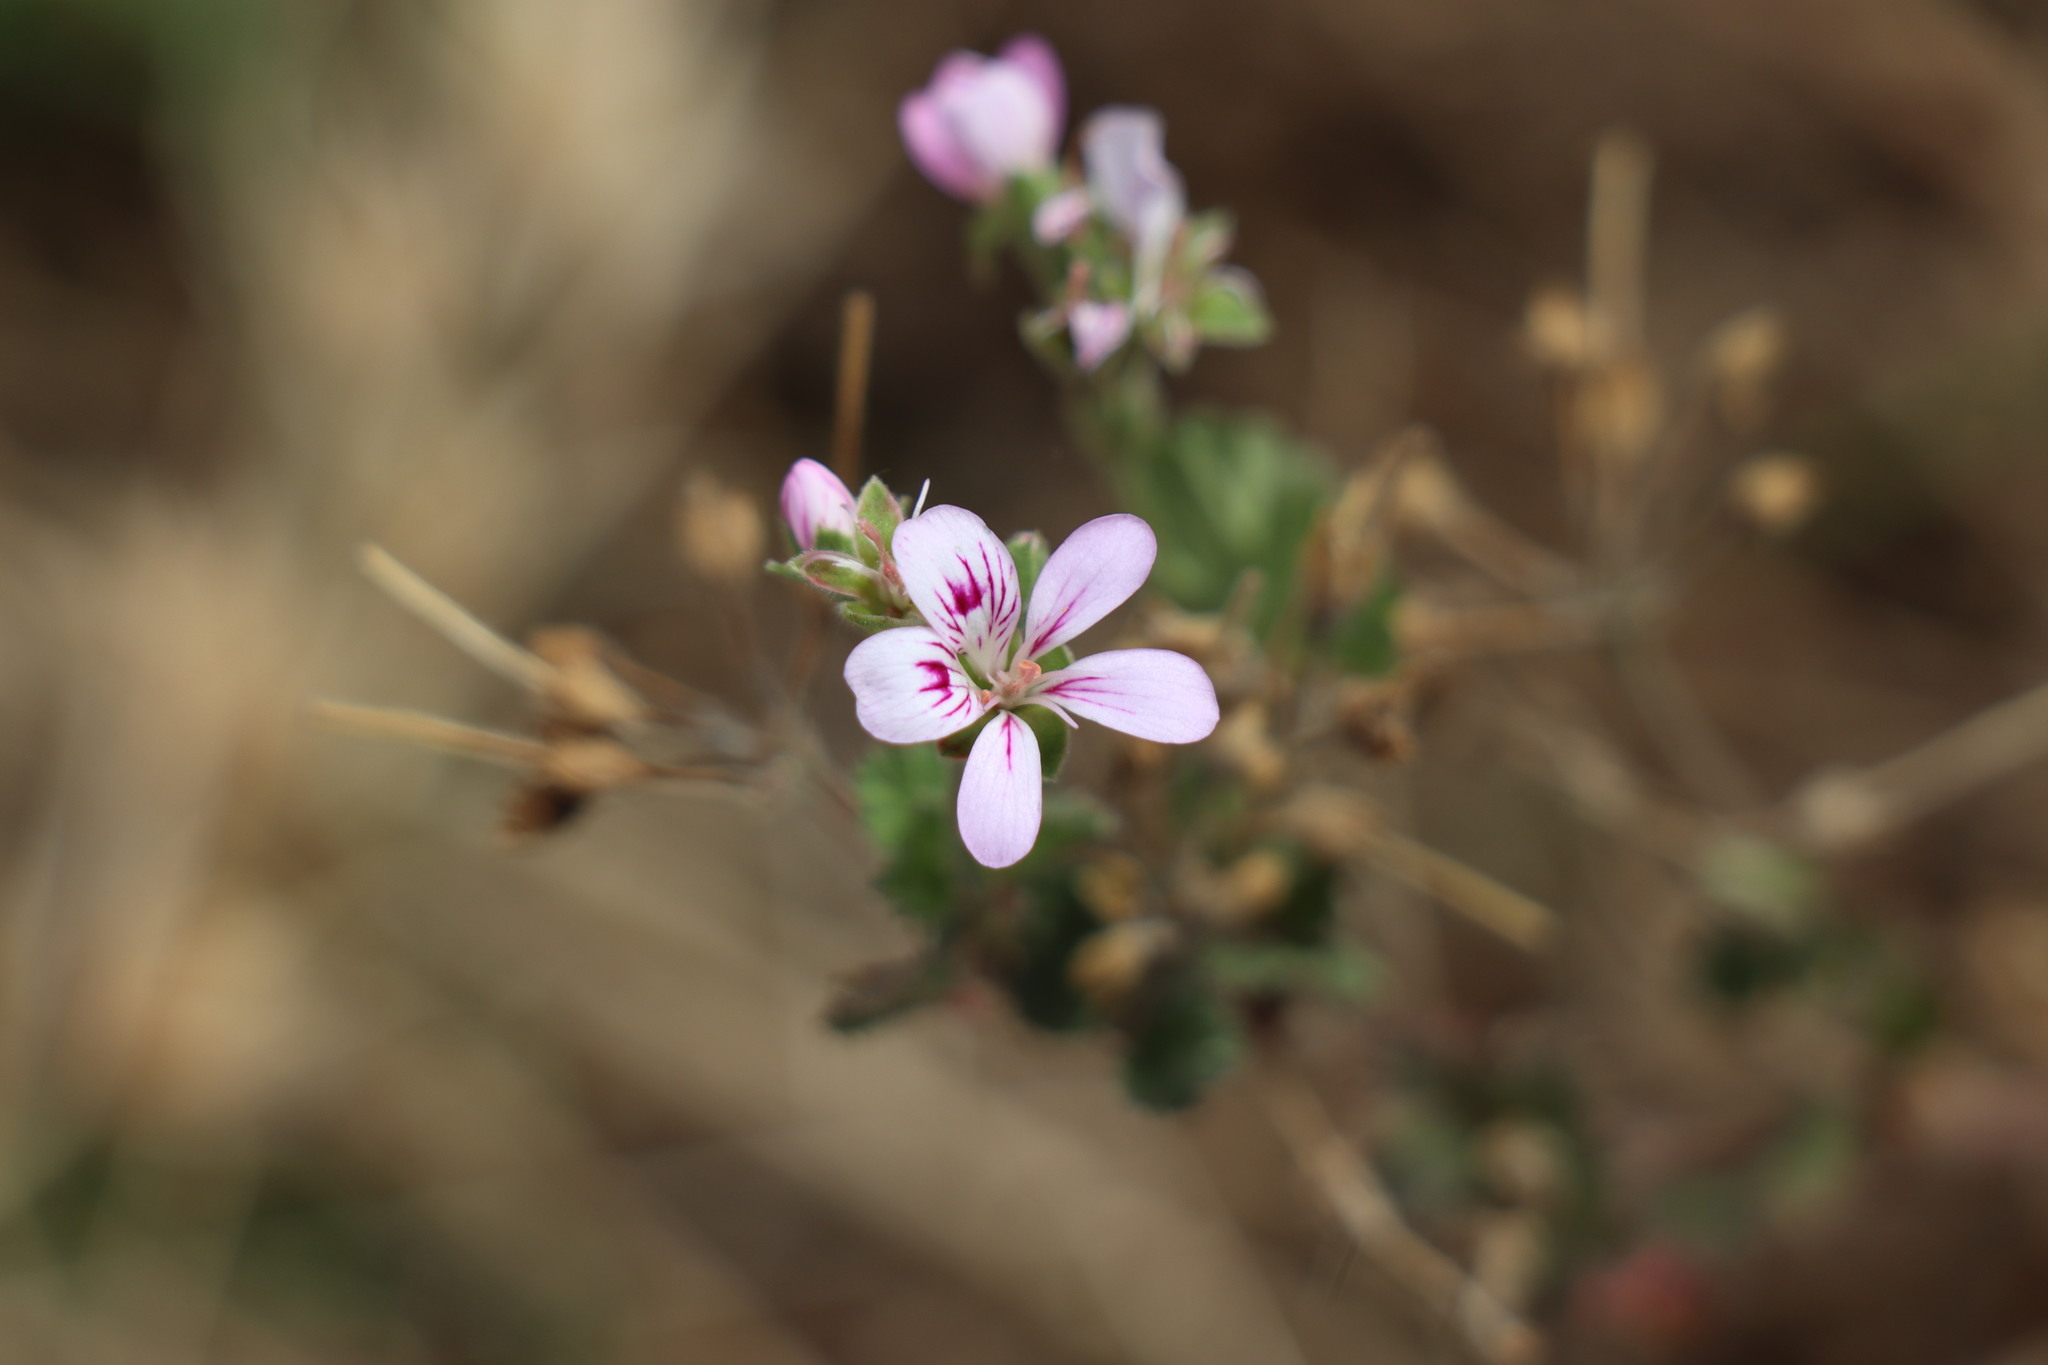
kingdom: Plantae
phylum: Tracheophyta
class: Magnoliopsida
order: Geraniales
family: Geraniaceae
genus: Pelargonium
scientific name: Pelargonium australe
